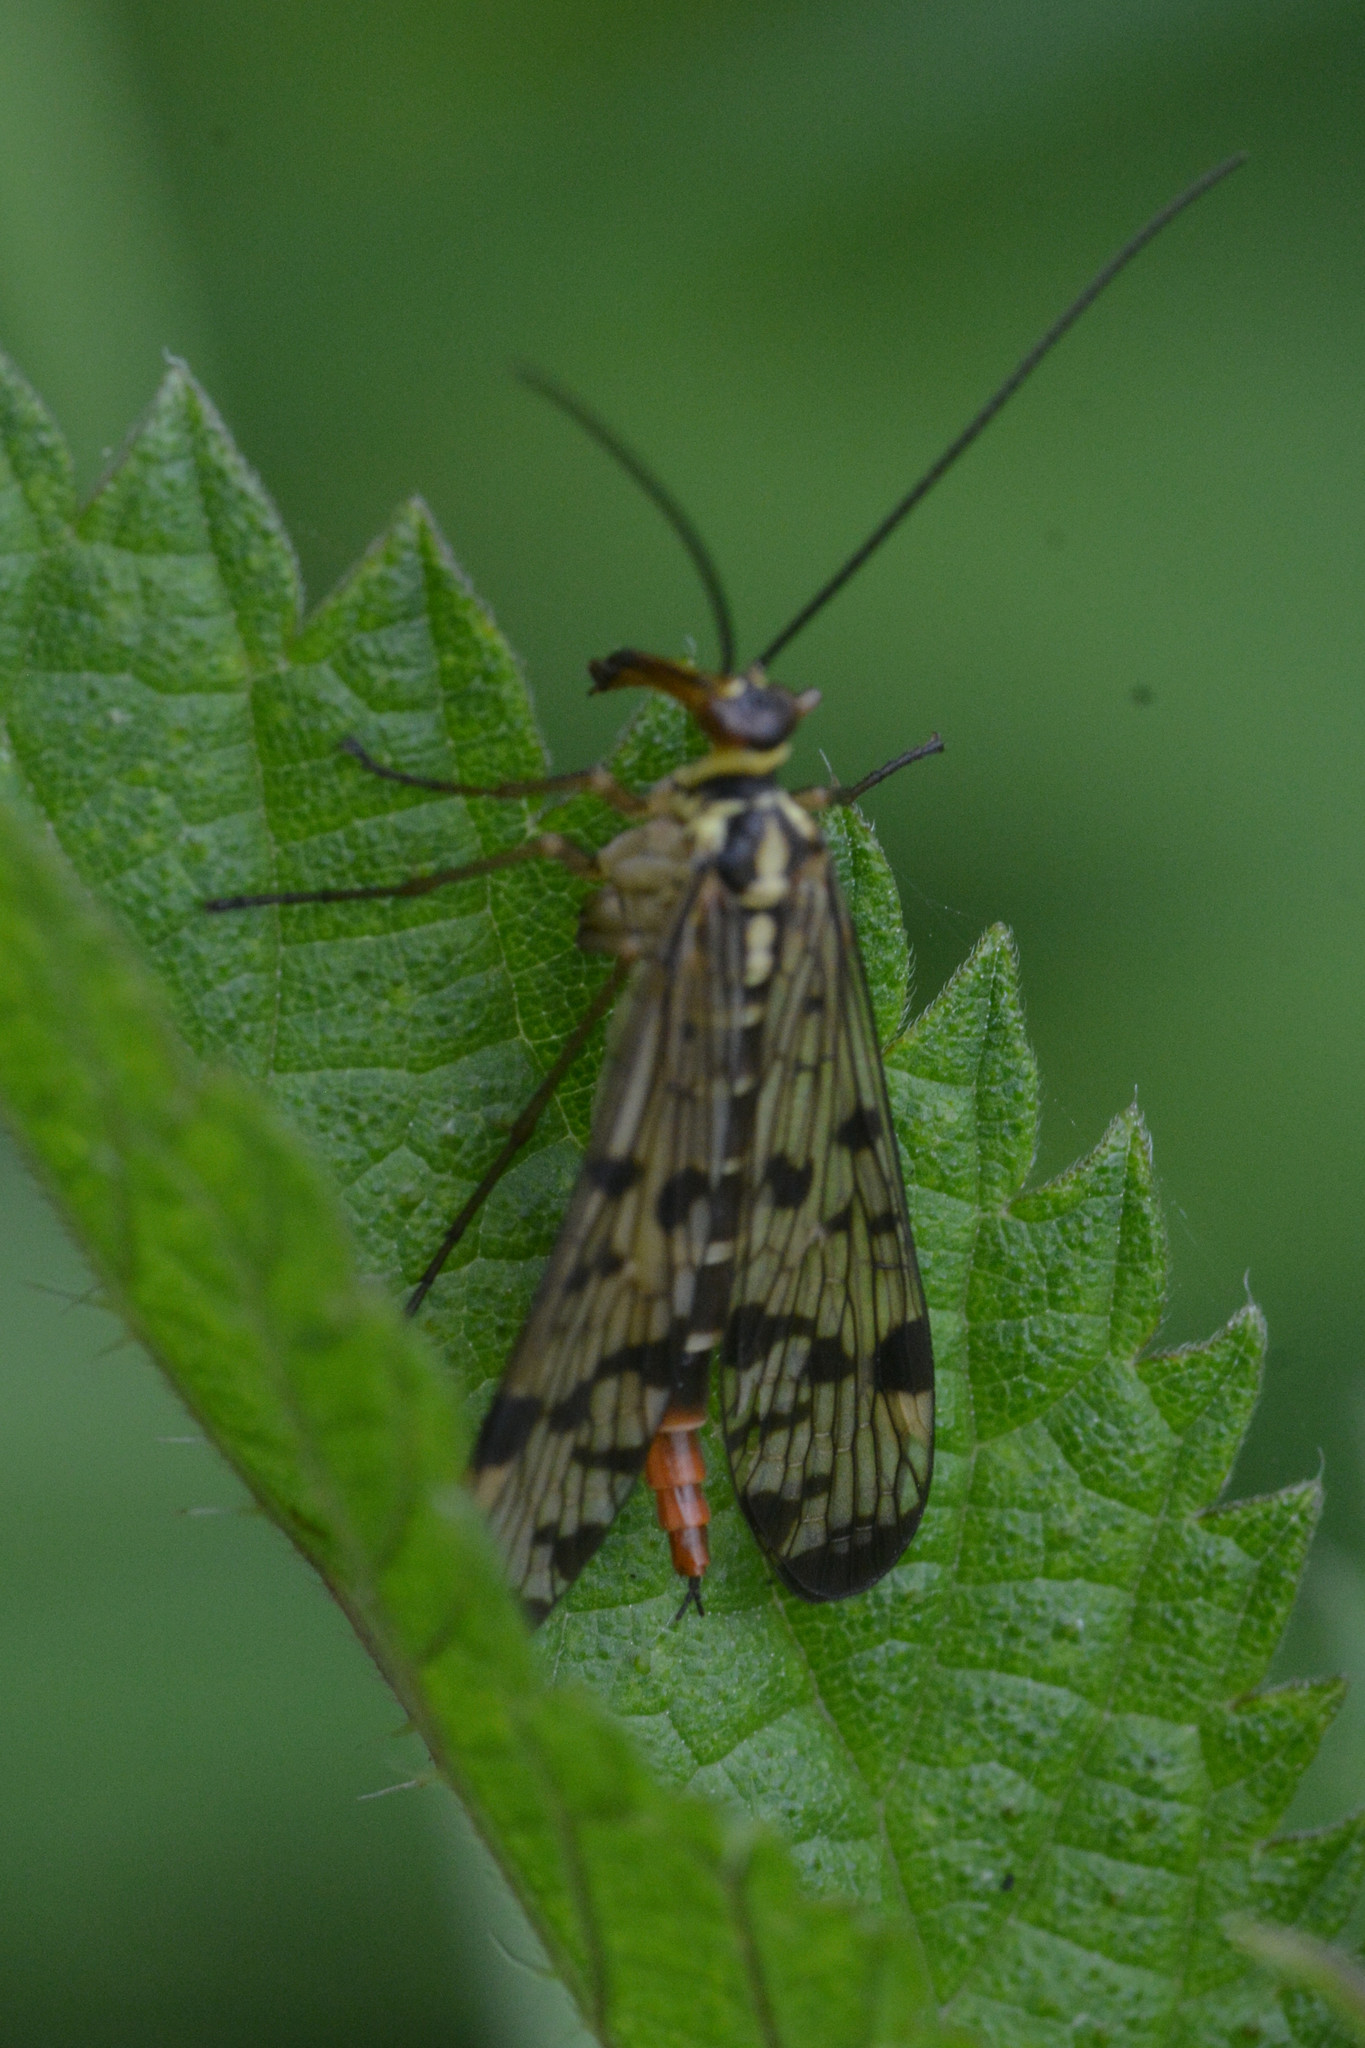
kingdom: Animalia
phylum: Arthropoda
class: Insecta
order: Mecoptera
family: Panorpidae
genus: Panorpa
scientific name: Panorpa
